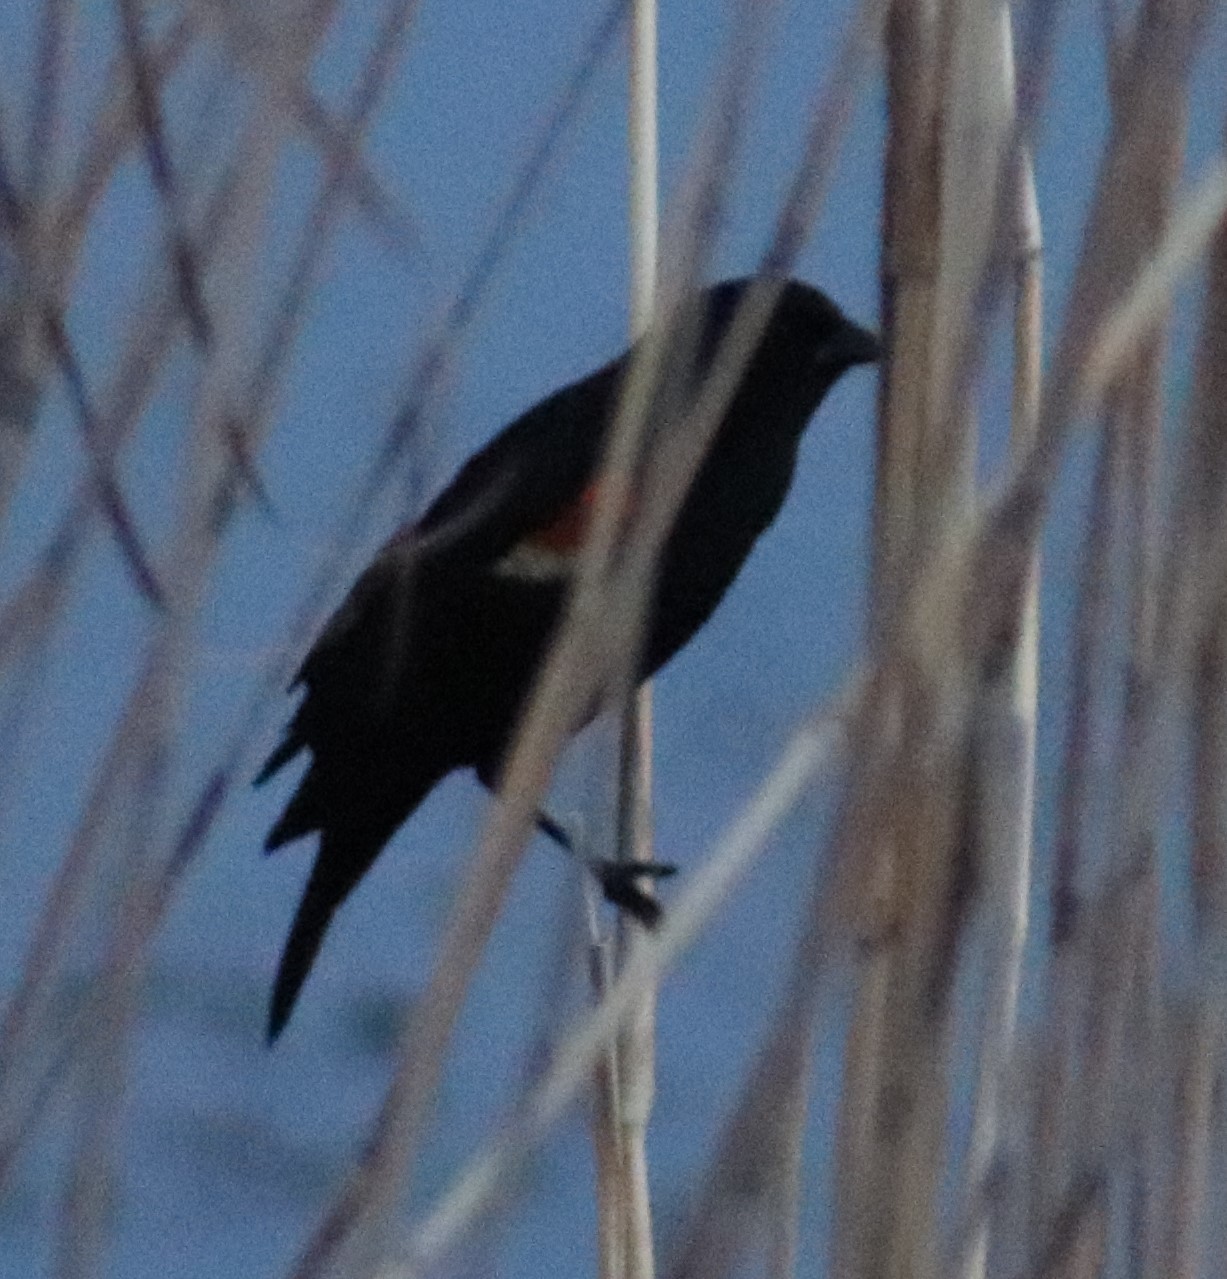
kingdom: Animalia
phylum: Chordata
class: Aves
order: Passeriformes
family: Icteridae
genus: Agelaius
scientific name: Agelaius phoeniceus
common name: Red-winged blackbird
